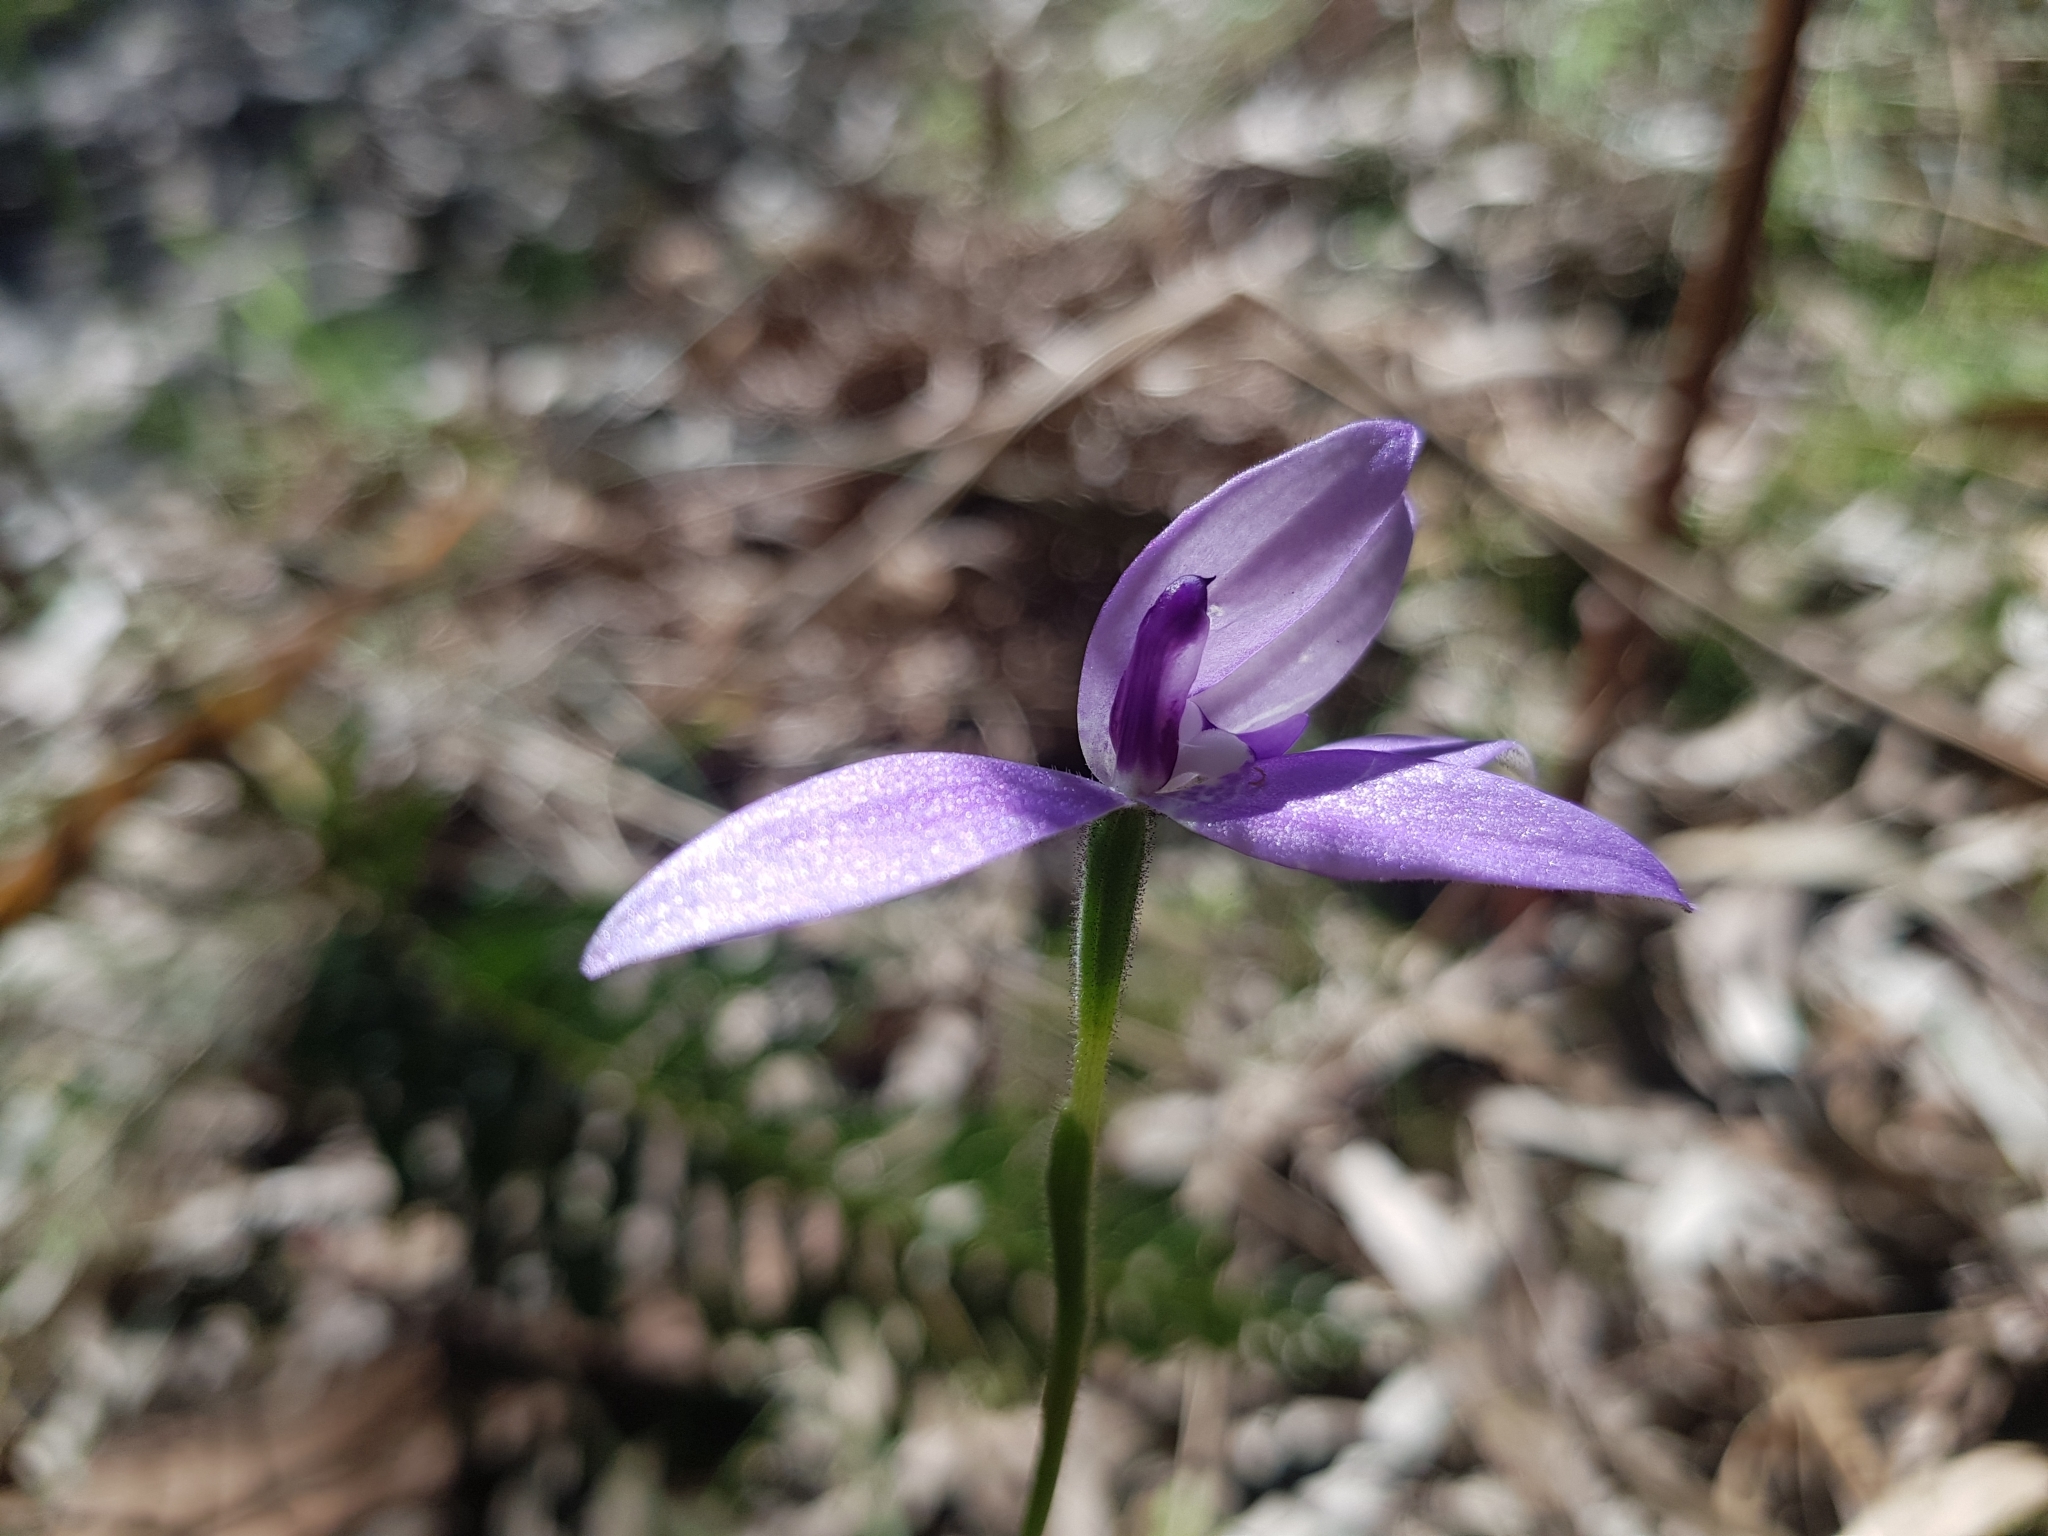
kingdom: Plantae
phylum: Tracheophyta
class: Liliopsida
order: Asparagales
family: Orchidaceae
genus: Caladenia
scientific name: Caladenia major
